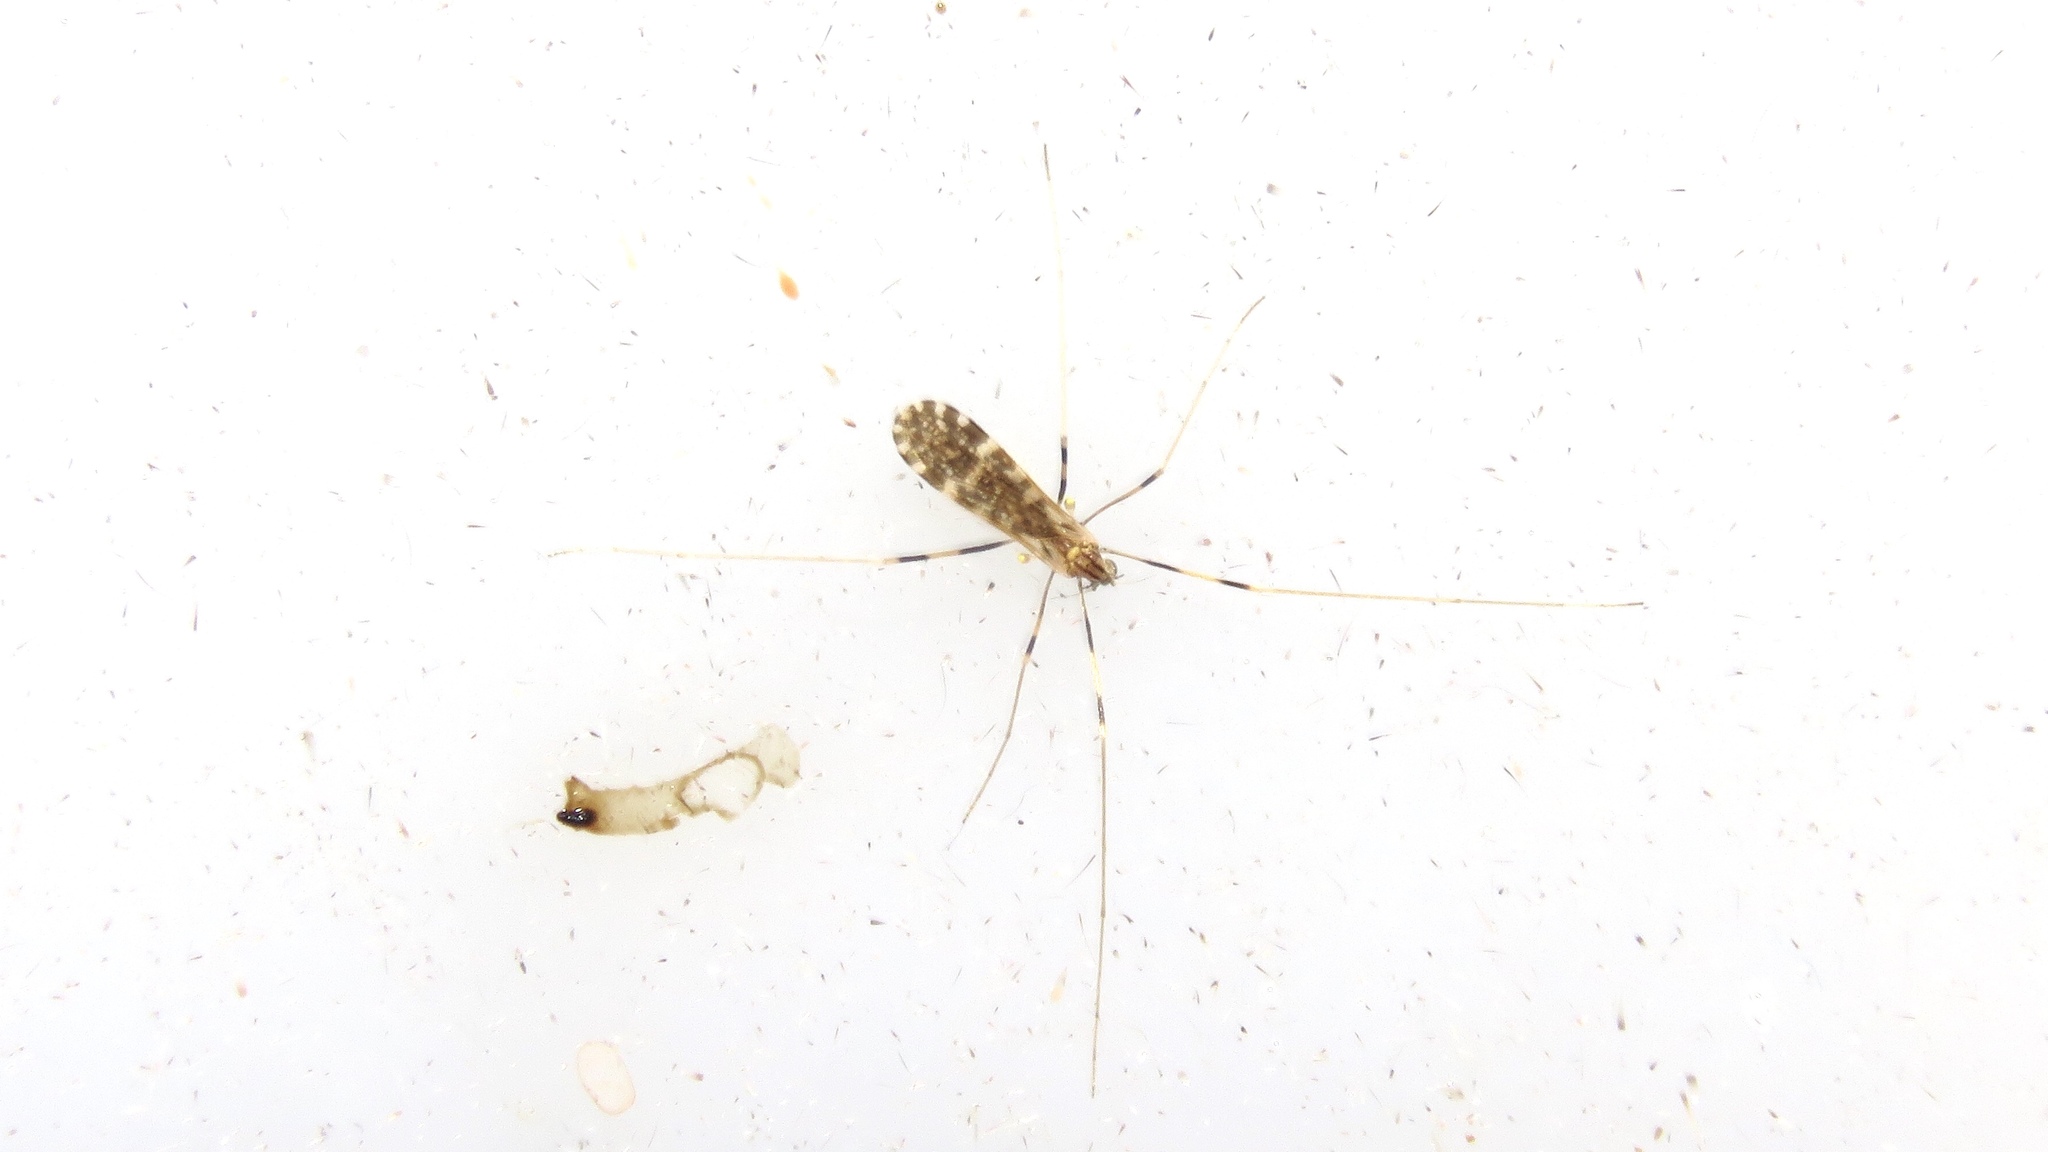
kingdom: Animalia
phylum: Arthropoda
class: Insecta
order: Diptera
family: Limoniidae
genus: Erioptera
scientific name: Erioptera caliptera
